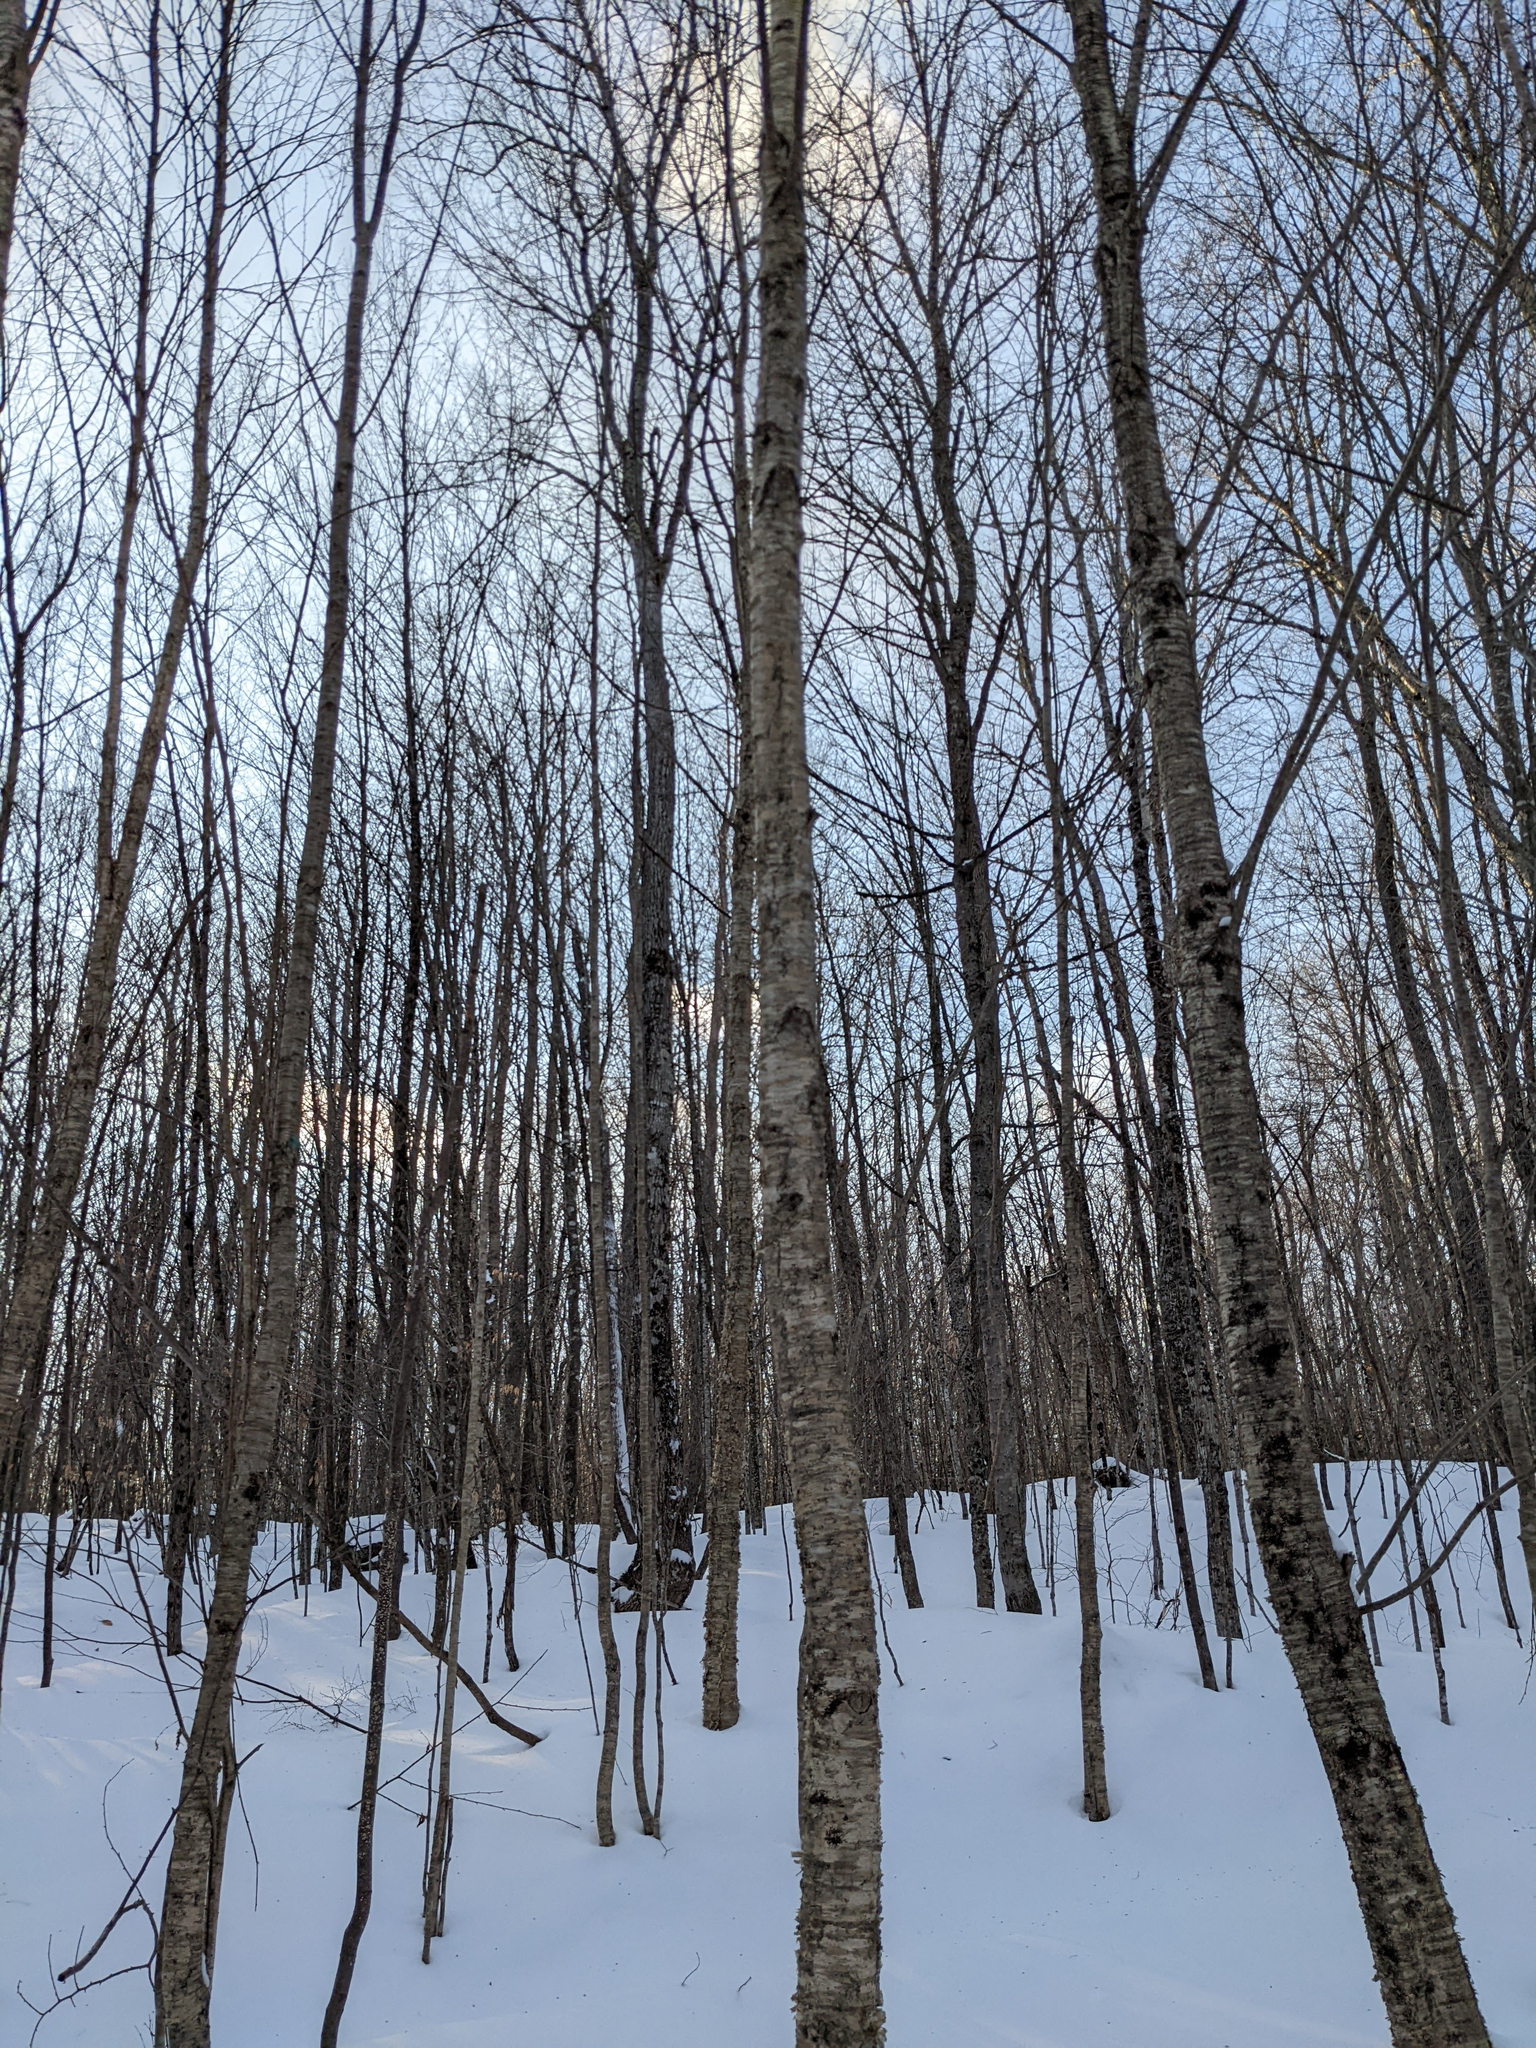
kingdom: Plantae
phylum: Tracheophyta
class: Magnoliopsida
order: Fagales
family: Betulaceae
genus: Betula
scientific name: Betula alleghaniensis
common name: Yellow birch
